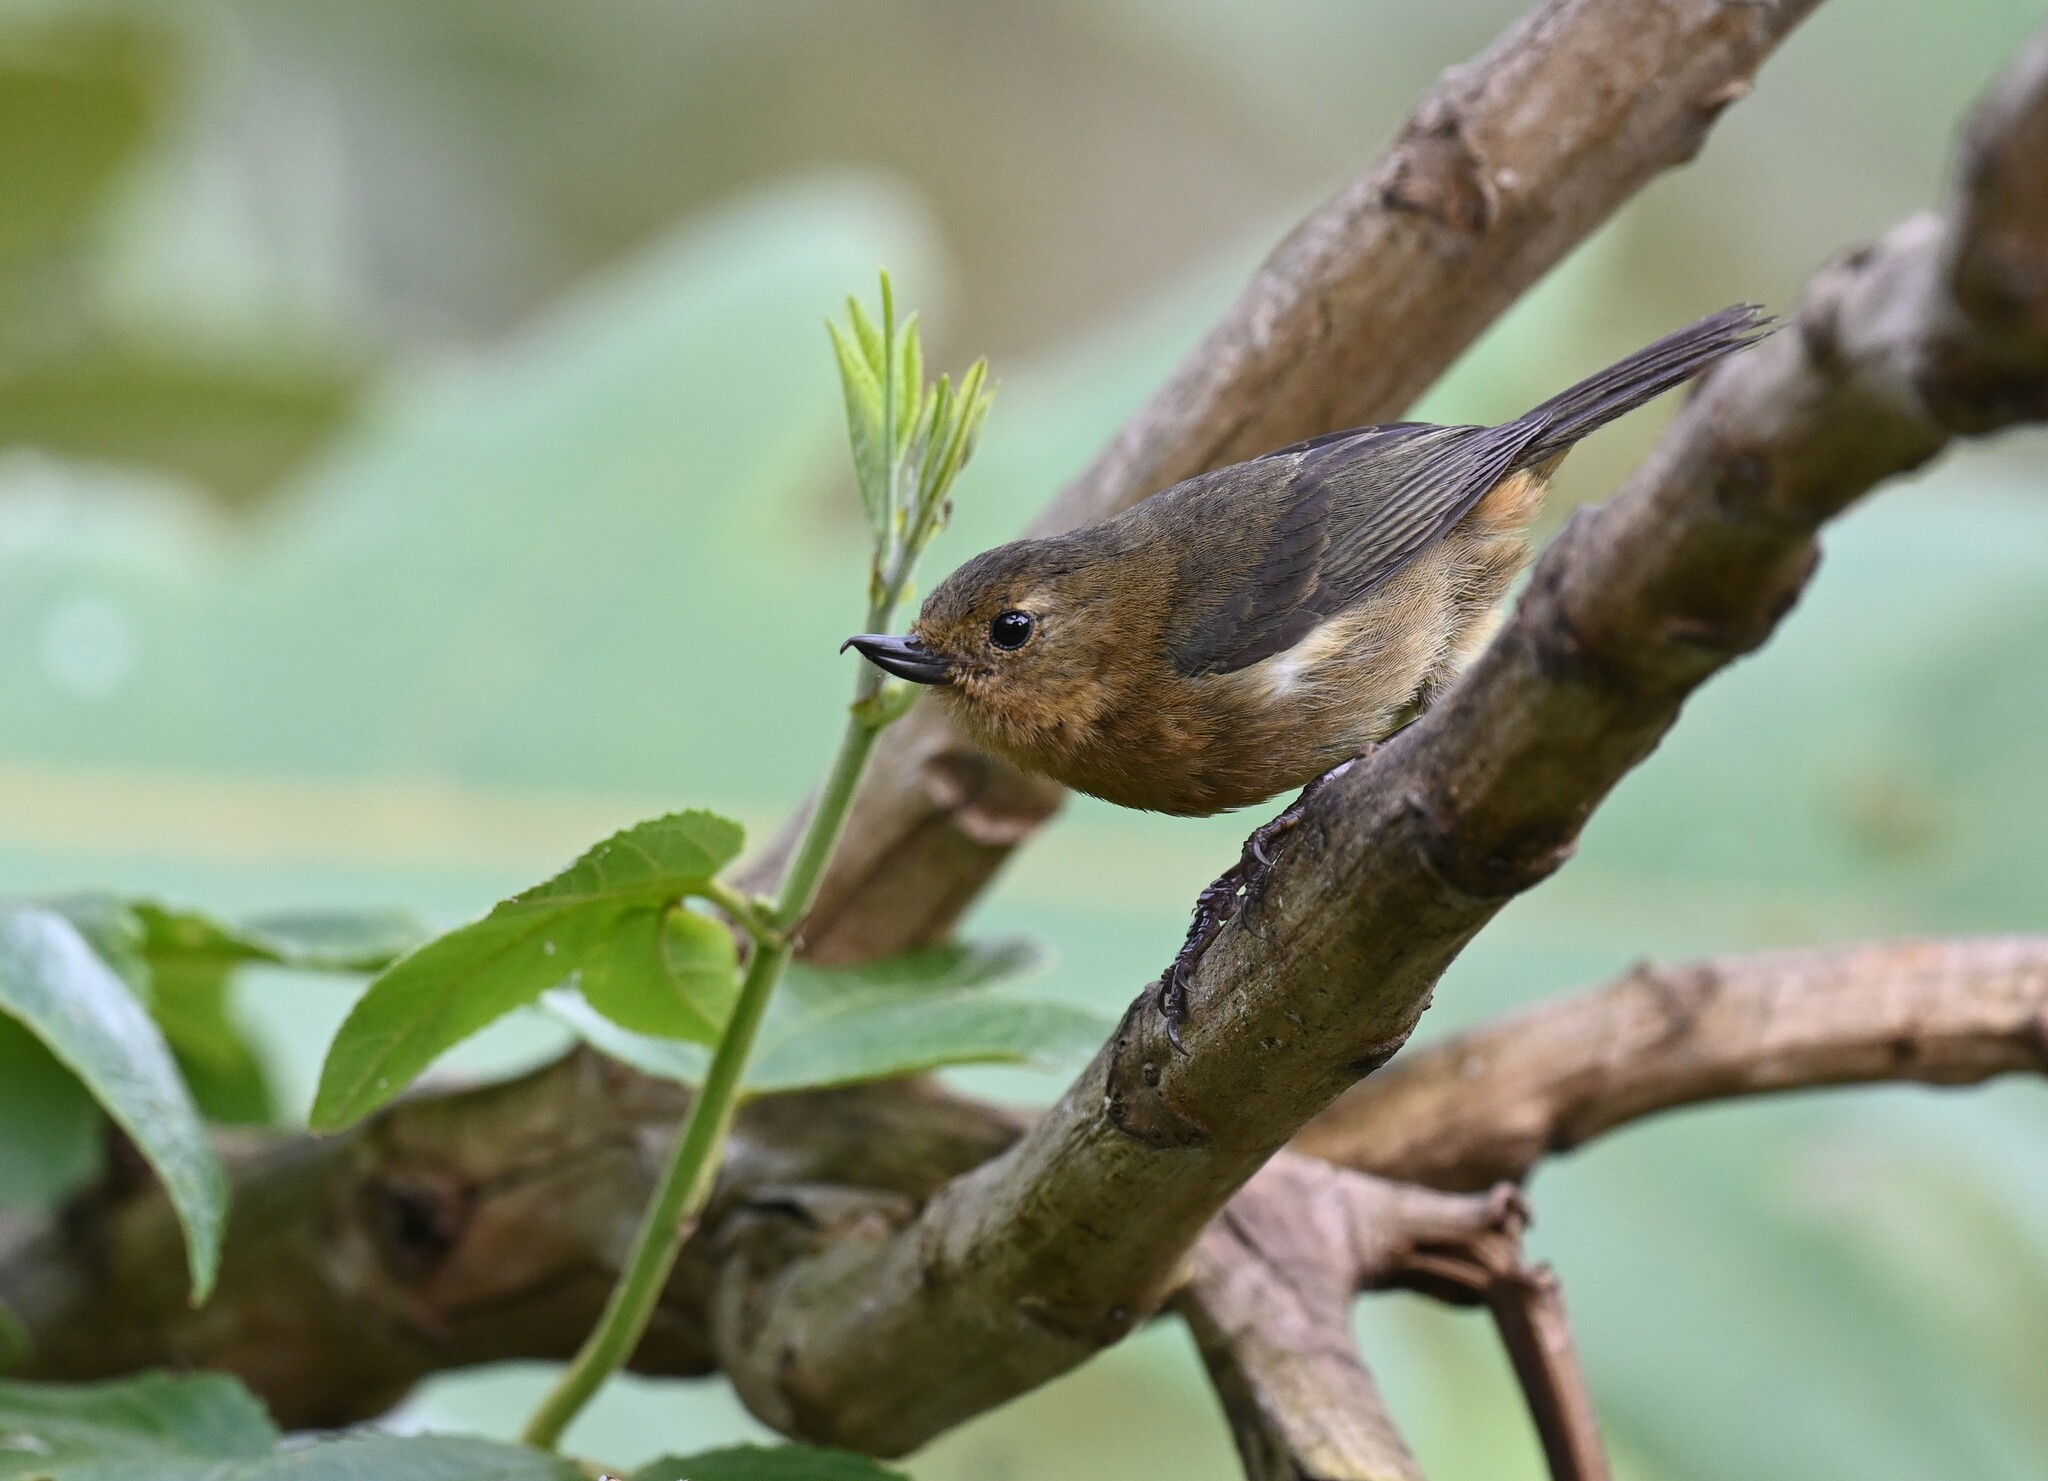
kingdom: Animalia
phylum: Chordata
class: Aves
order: Passeriformes
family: Thraupidae
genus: Diglossa
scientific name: Diglossa albilatera
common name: White-sided flowerpiercer
